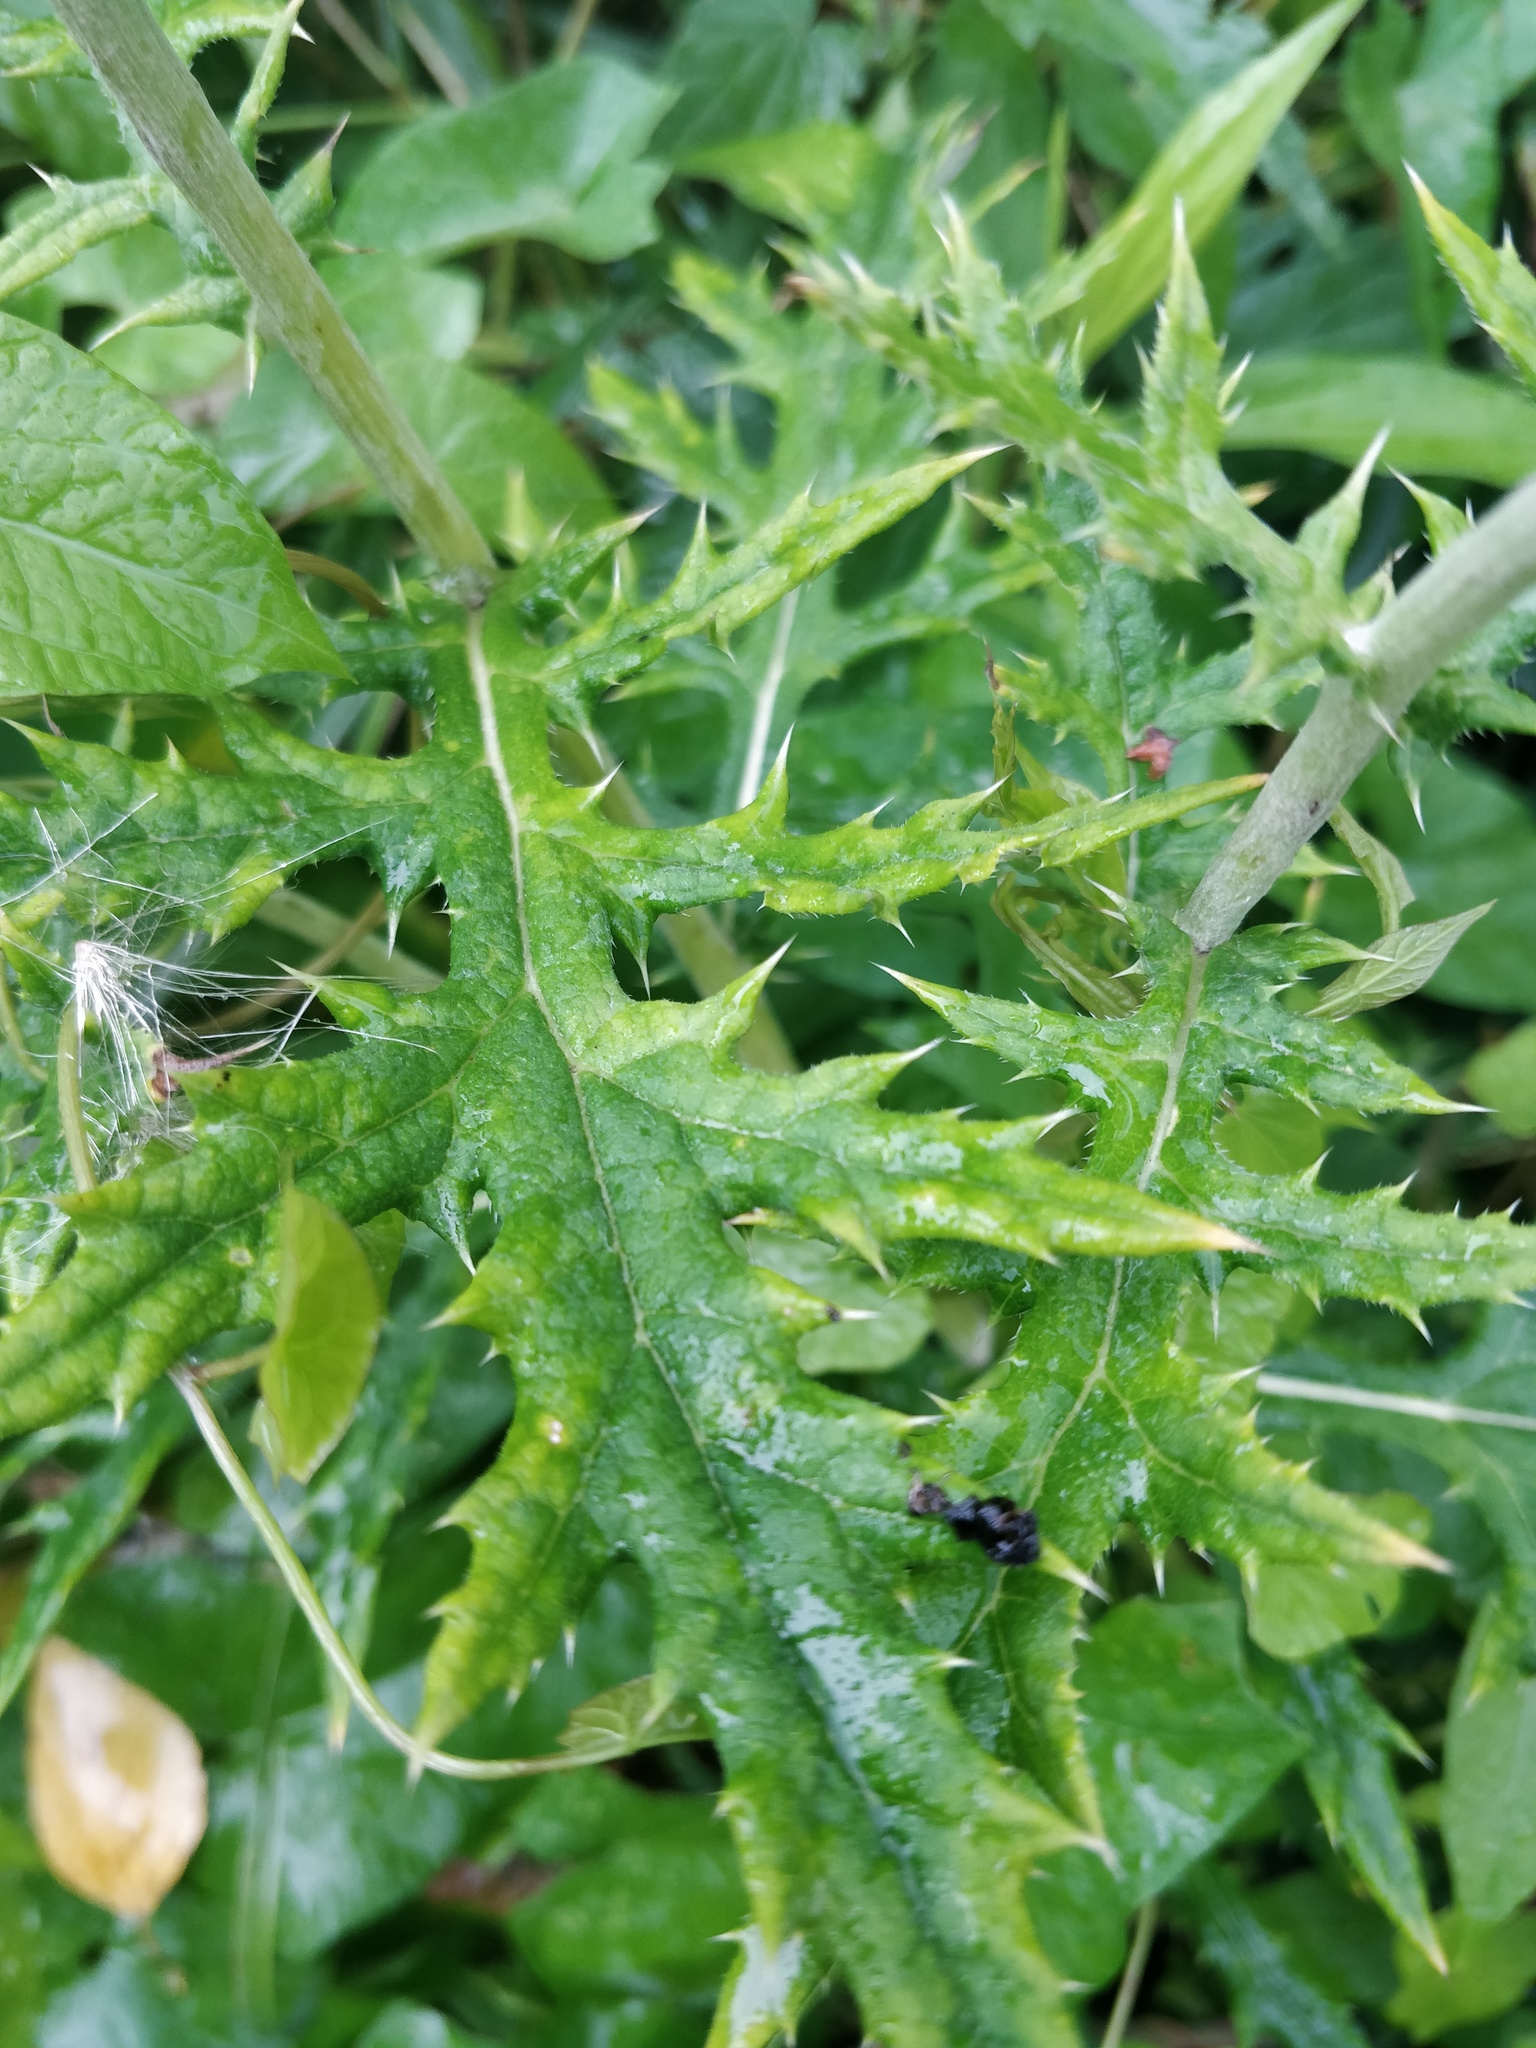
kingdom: Plantae
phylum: Tracheophyta
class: Magnoliopsida
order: Asterales
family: Asteraceae
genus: Echinops
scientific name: Echinops exaltatus
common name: Globe-thistle
